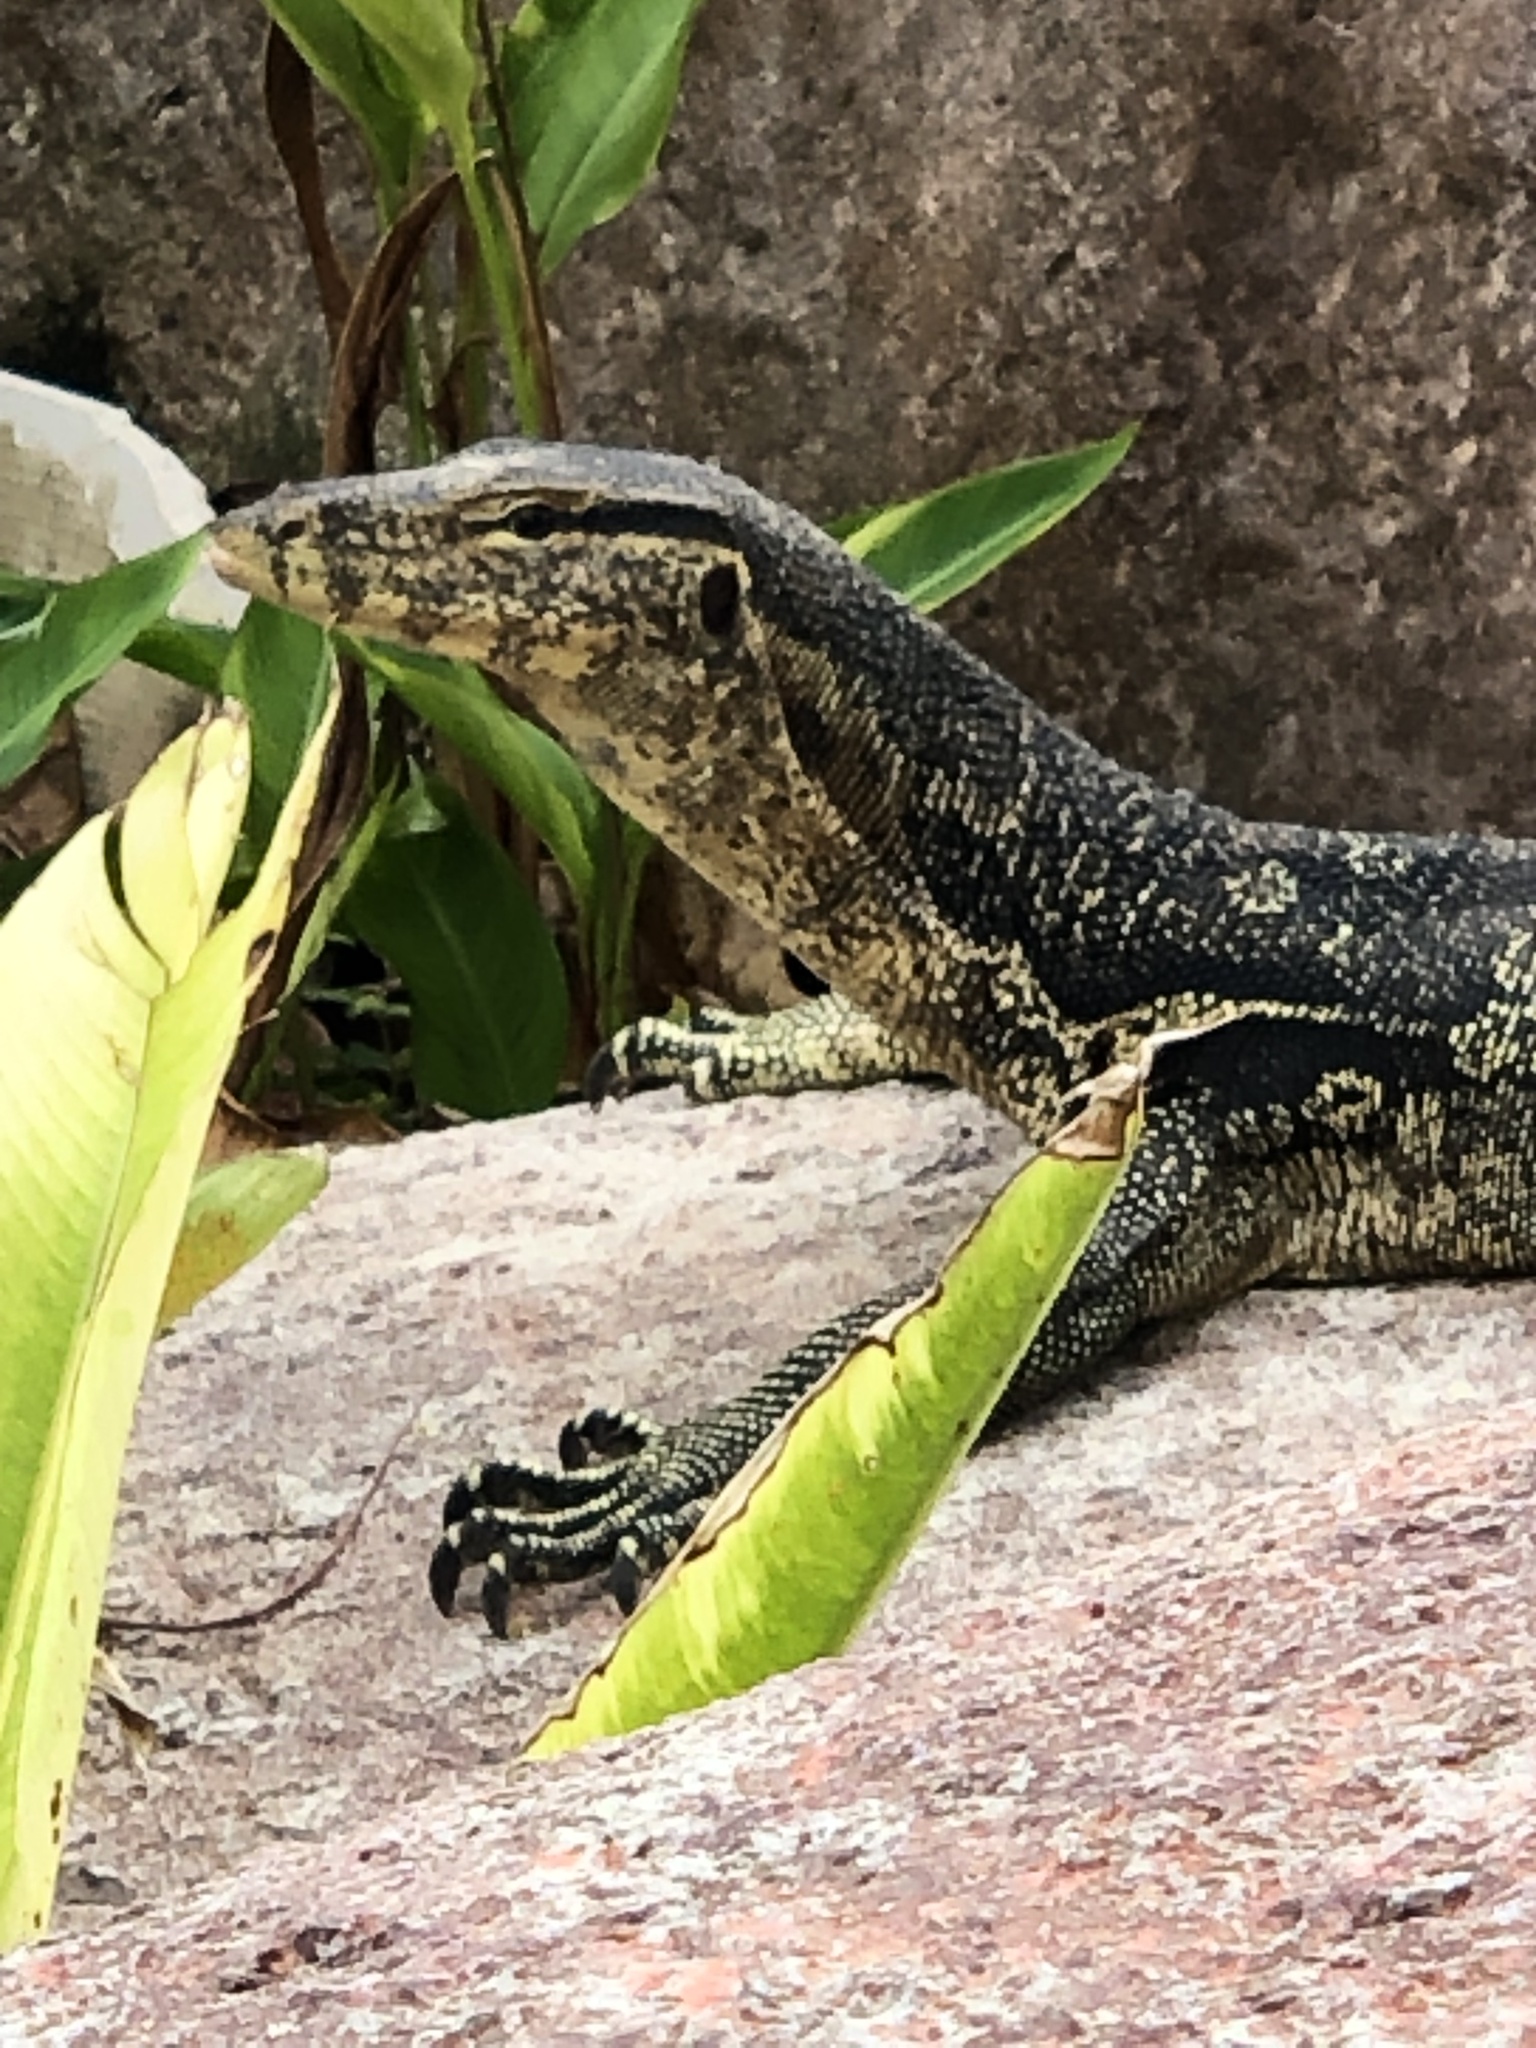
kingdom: Animalia
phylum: Chordata
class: Squamata
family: Varanidae
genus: Varanus
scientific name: Varanus salvator
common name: Common water monitor
